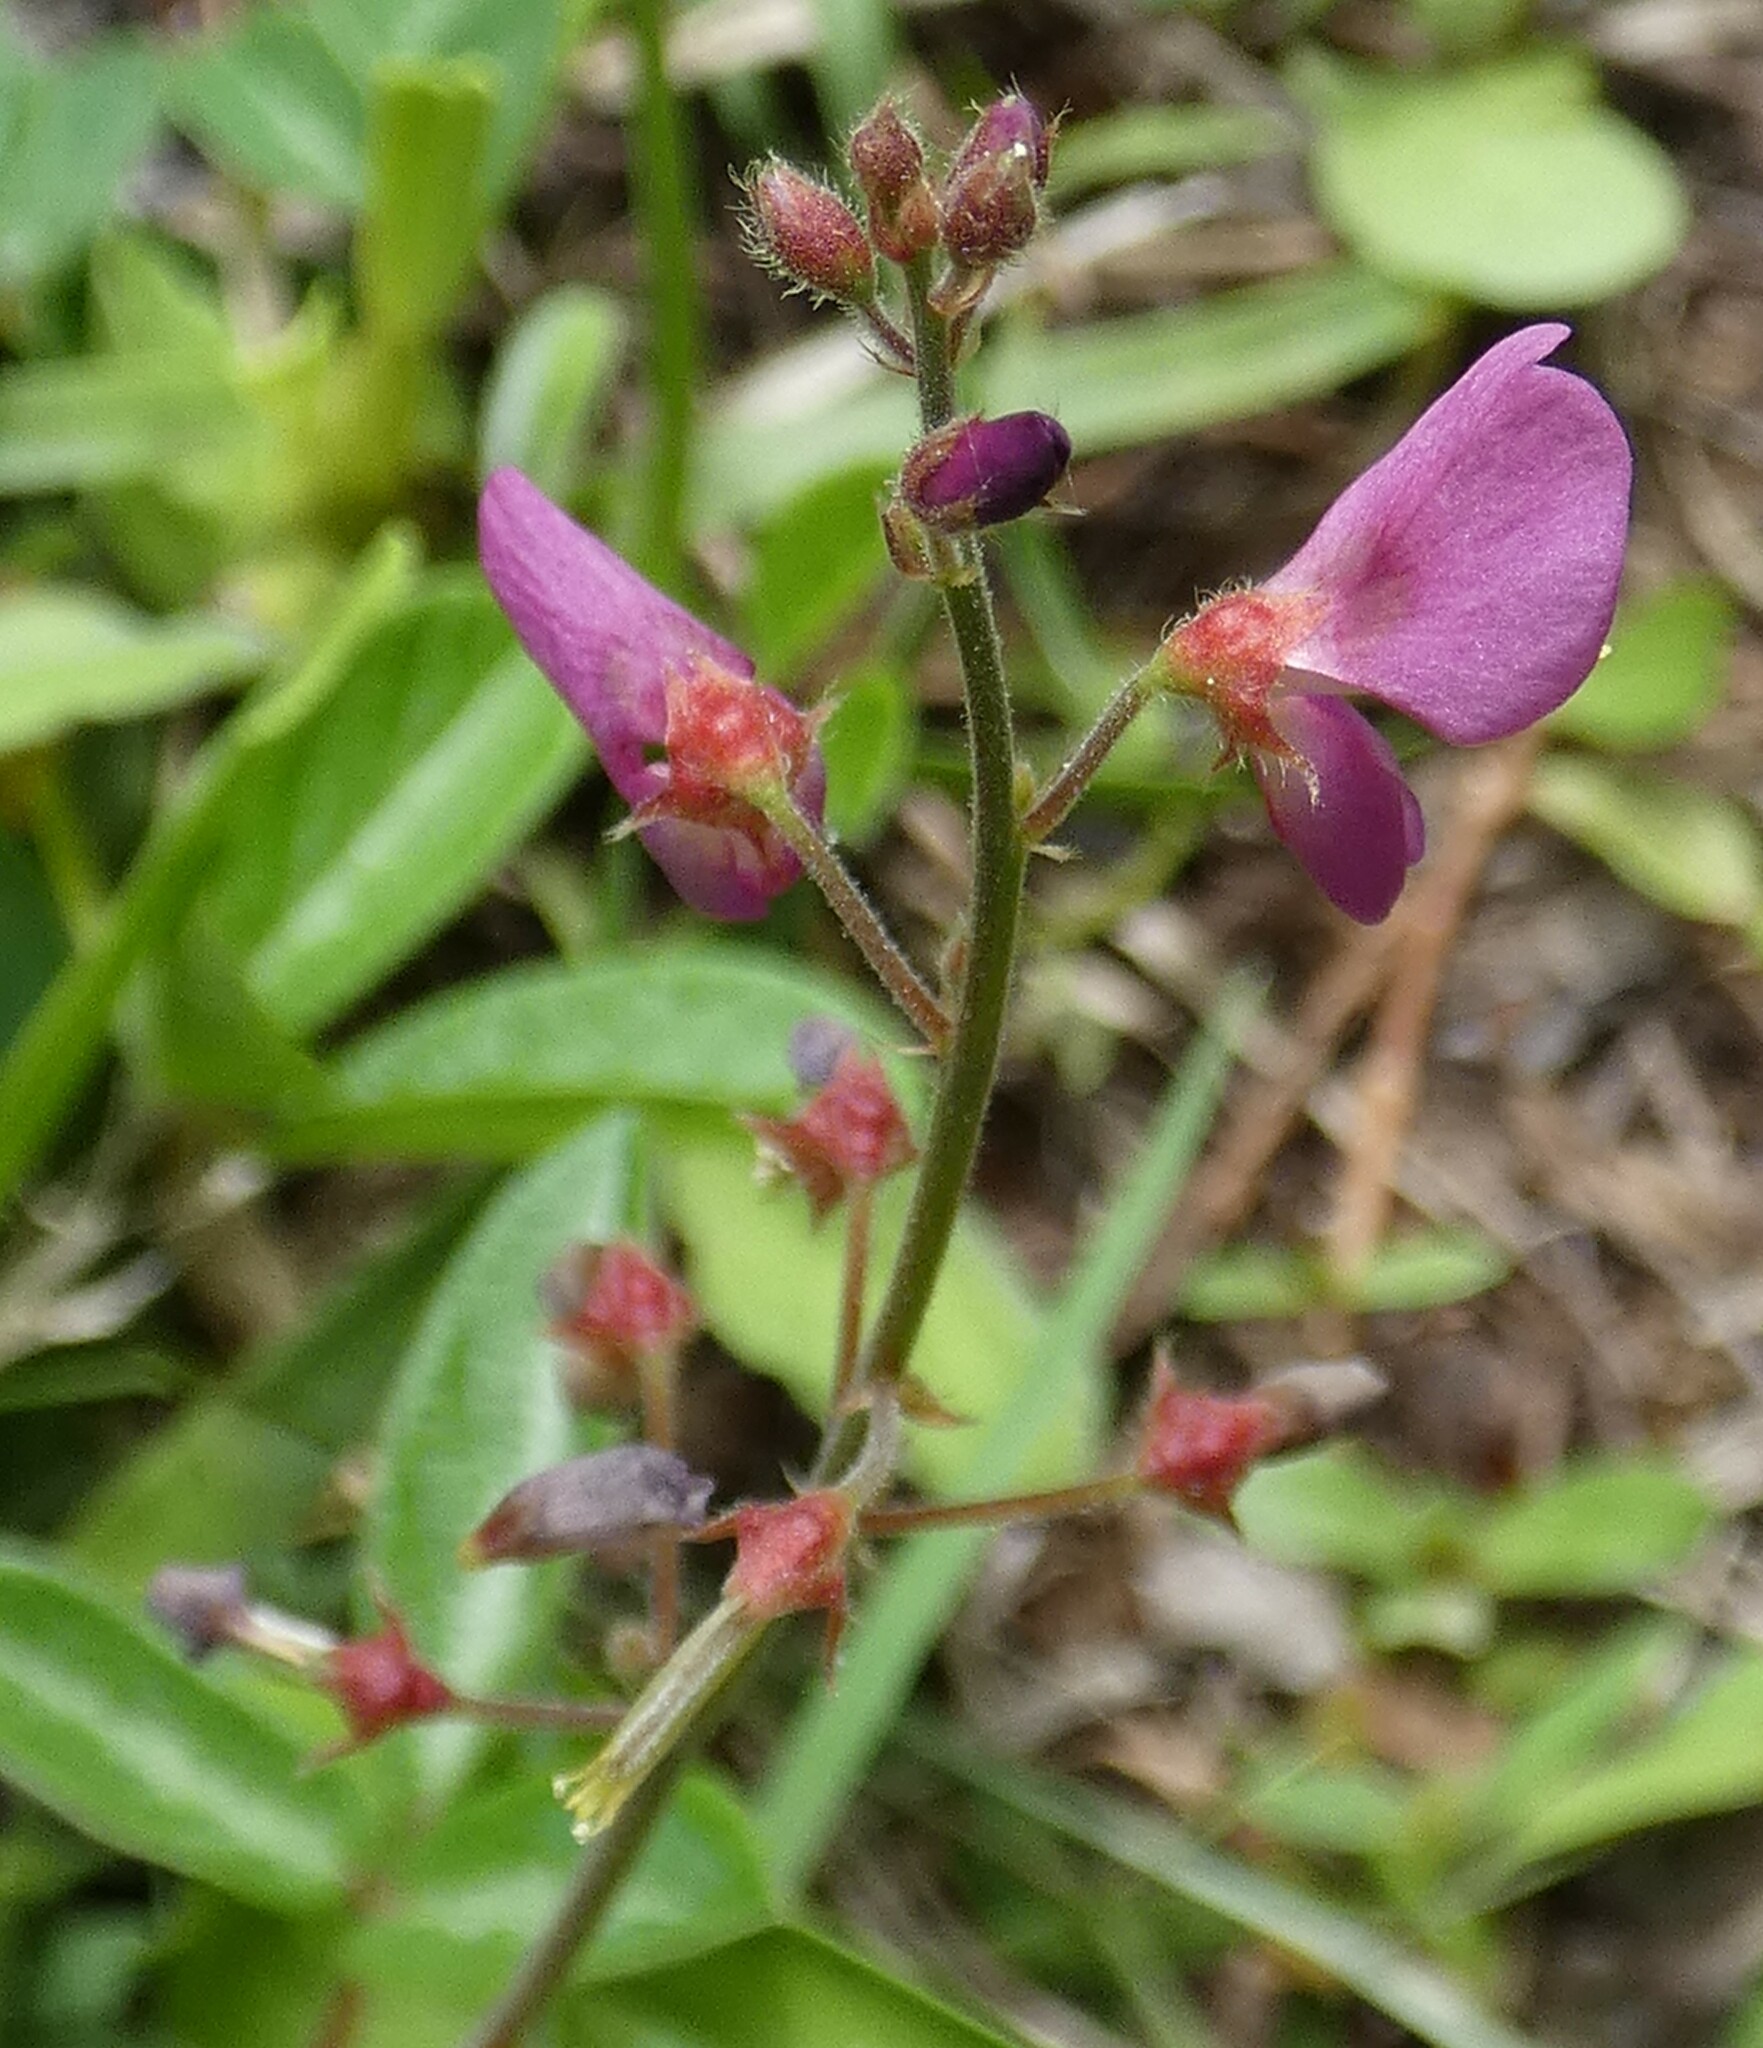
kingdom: Plantae
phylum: Tracheophyta
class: Magnoliopsida
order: Fabales
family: Fabaceae
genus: Desmodium
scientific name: Desmodium incanum
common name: Tickclover
